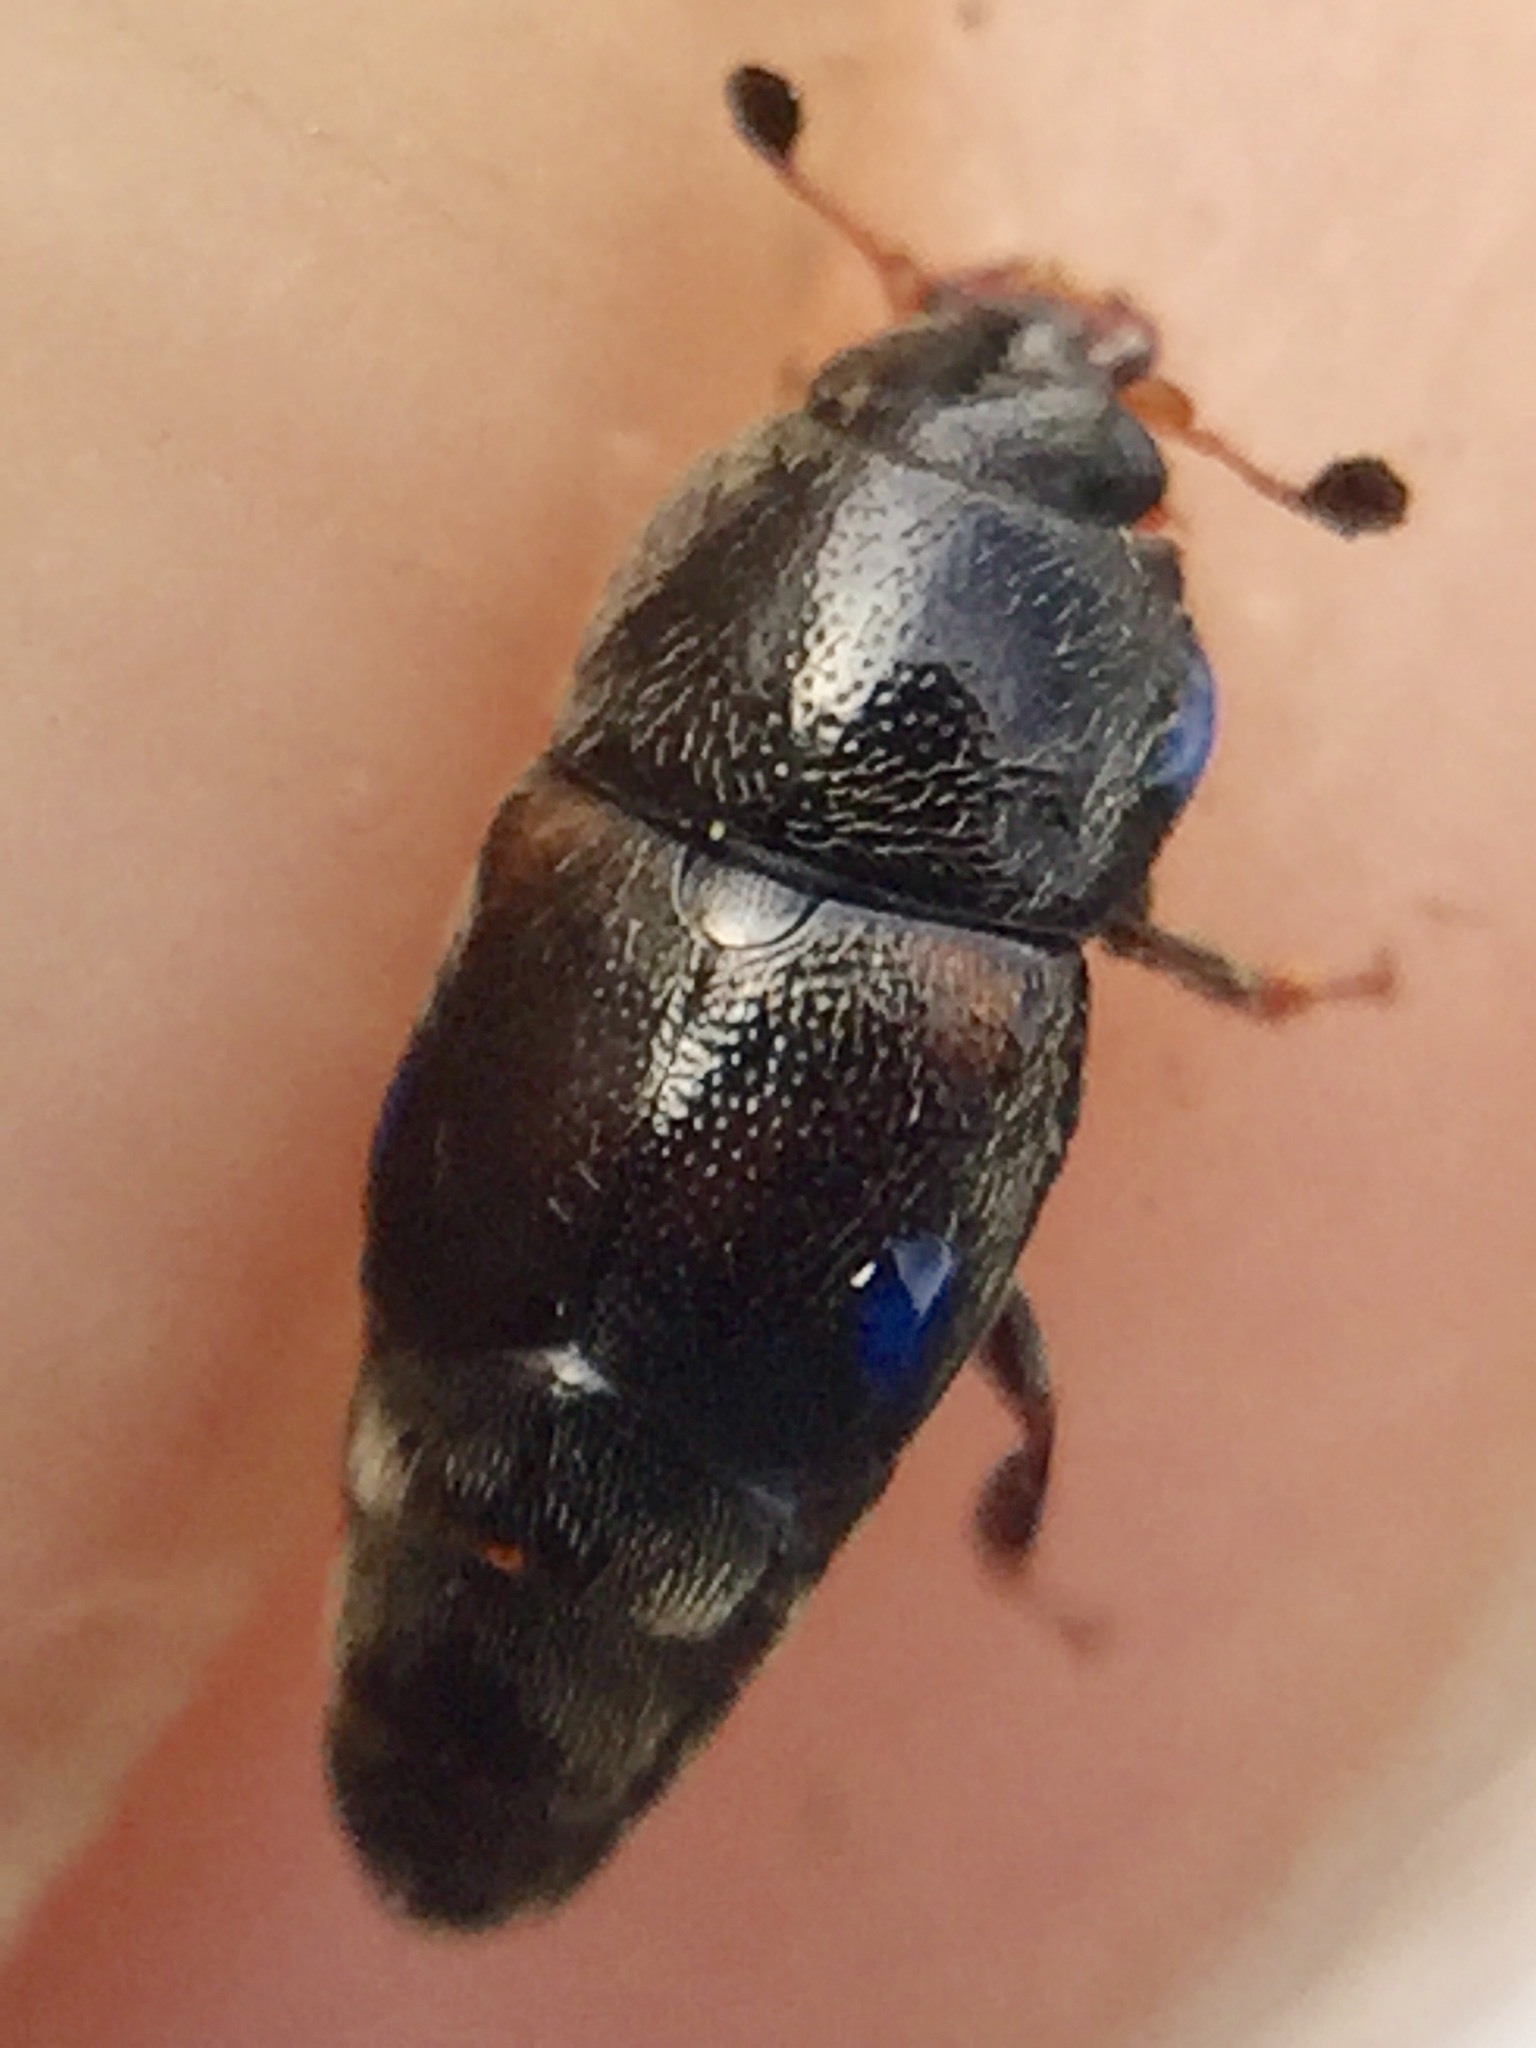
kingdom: Animalia
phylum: Arthropoda
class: Insecta
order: Coleoptera
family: Nitidulidae
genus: Urophorus
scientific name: Urophorus humeralis
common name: Sap beetle
